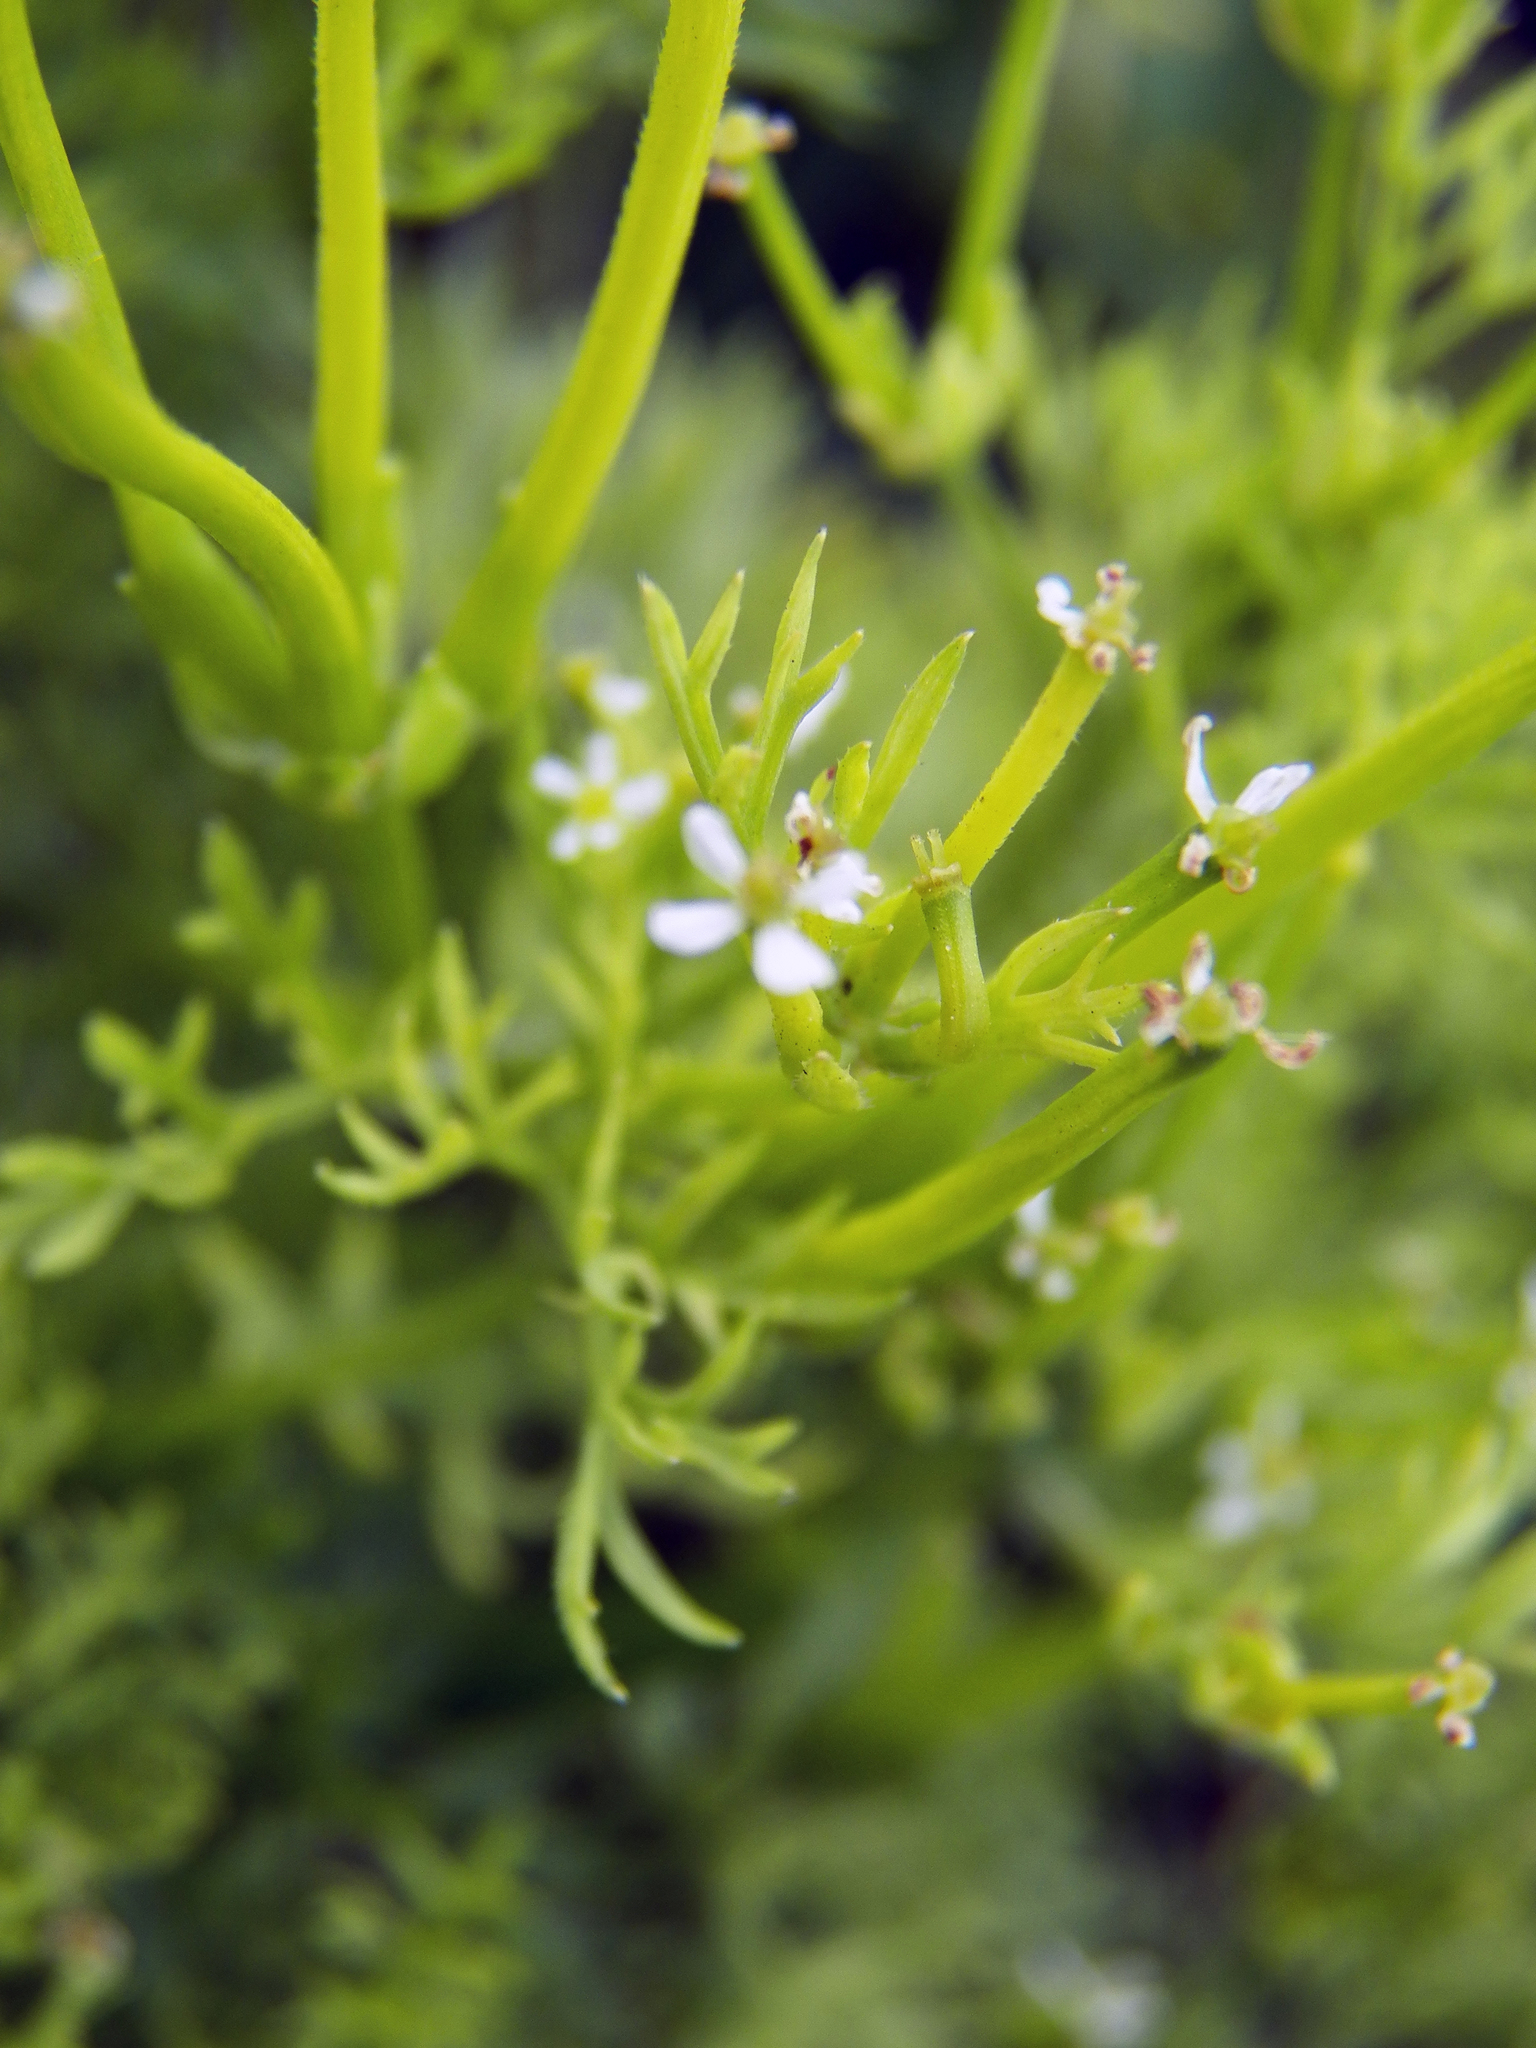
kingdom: Plantae
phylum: Tracheophyta
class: Magnoliopsida
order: Apiales
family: Apiaceae
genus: Scandix
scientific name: Scandix pecten-veneris
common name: Shepherd's-needle
